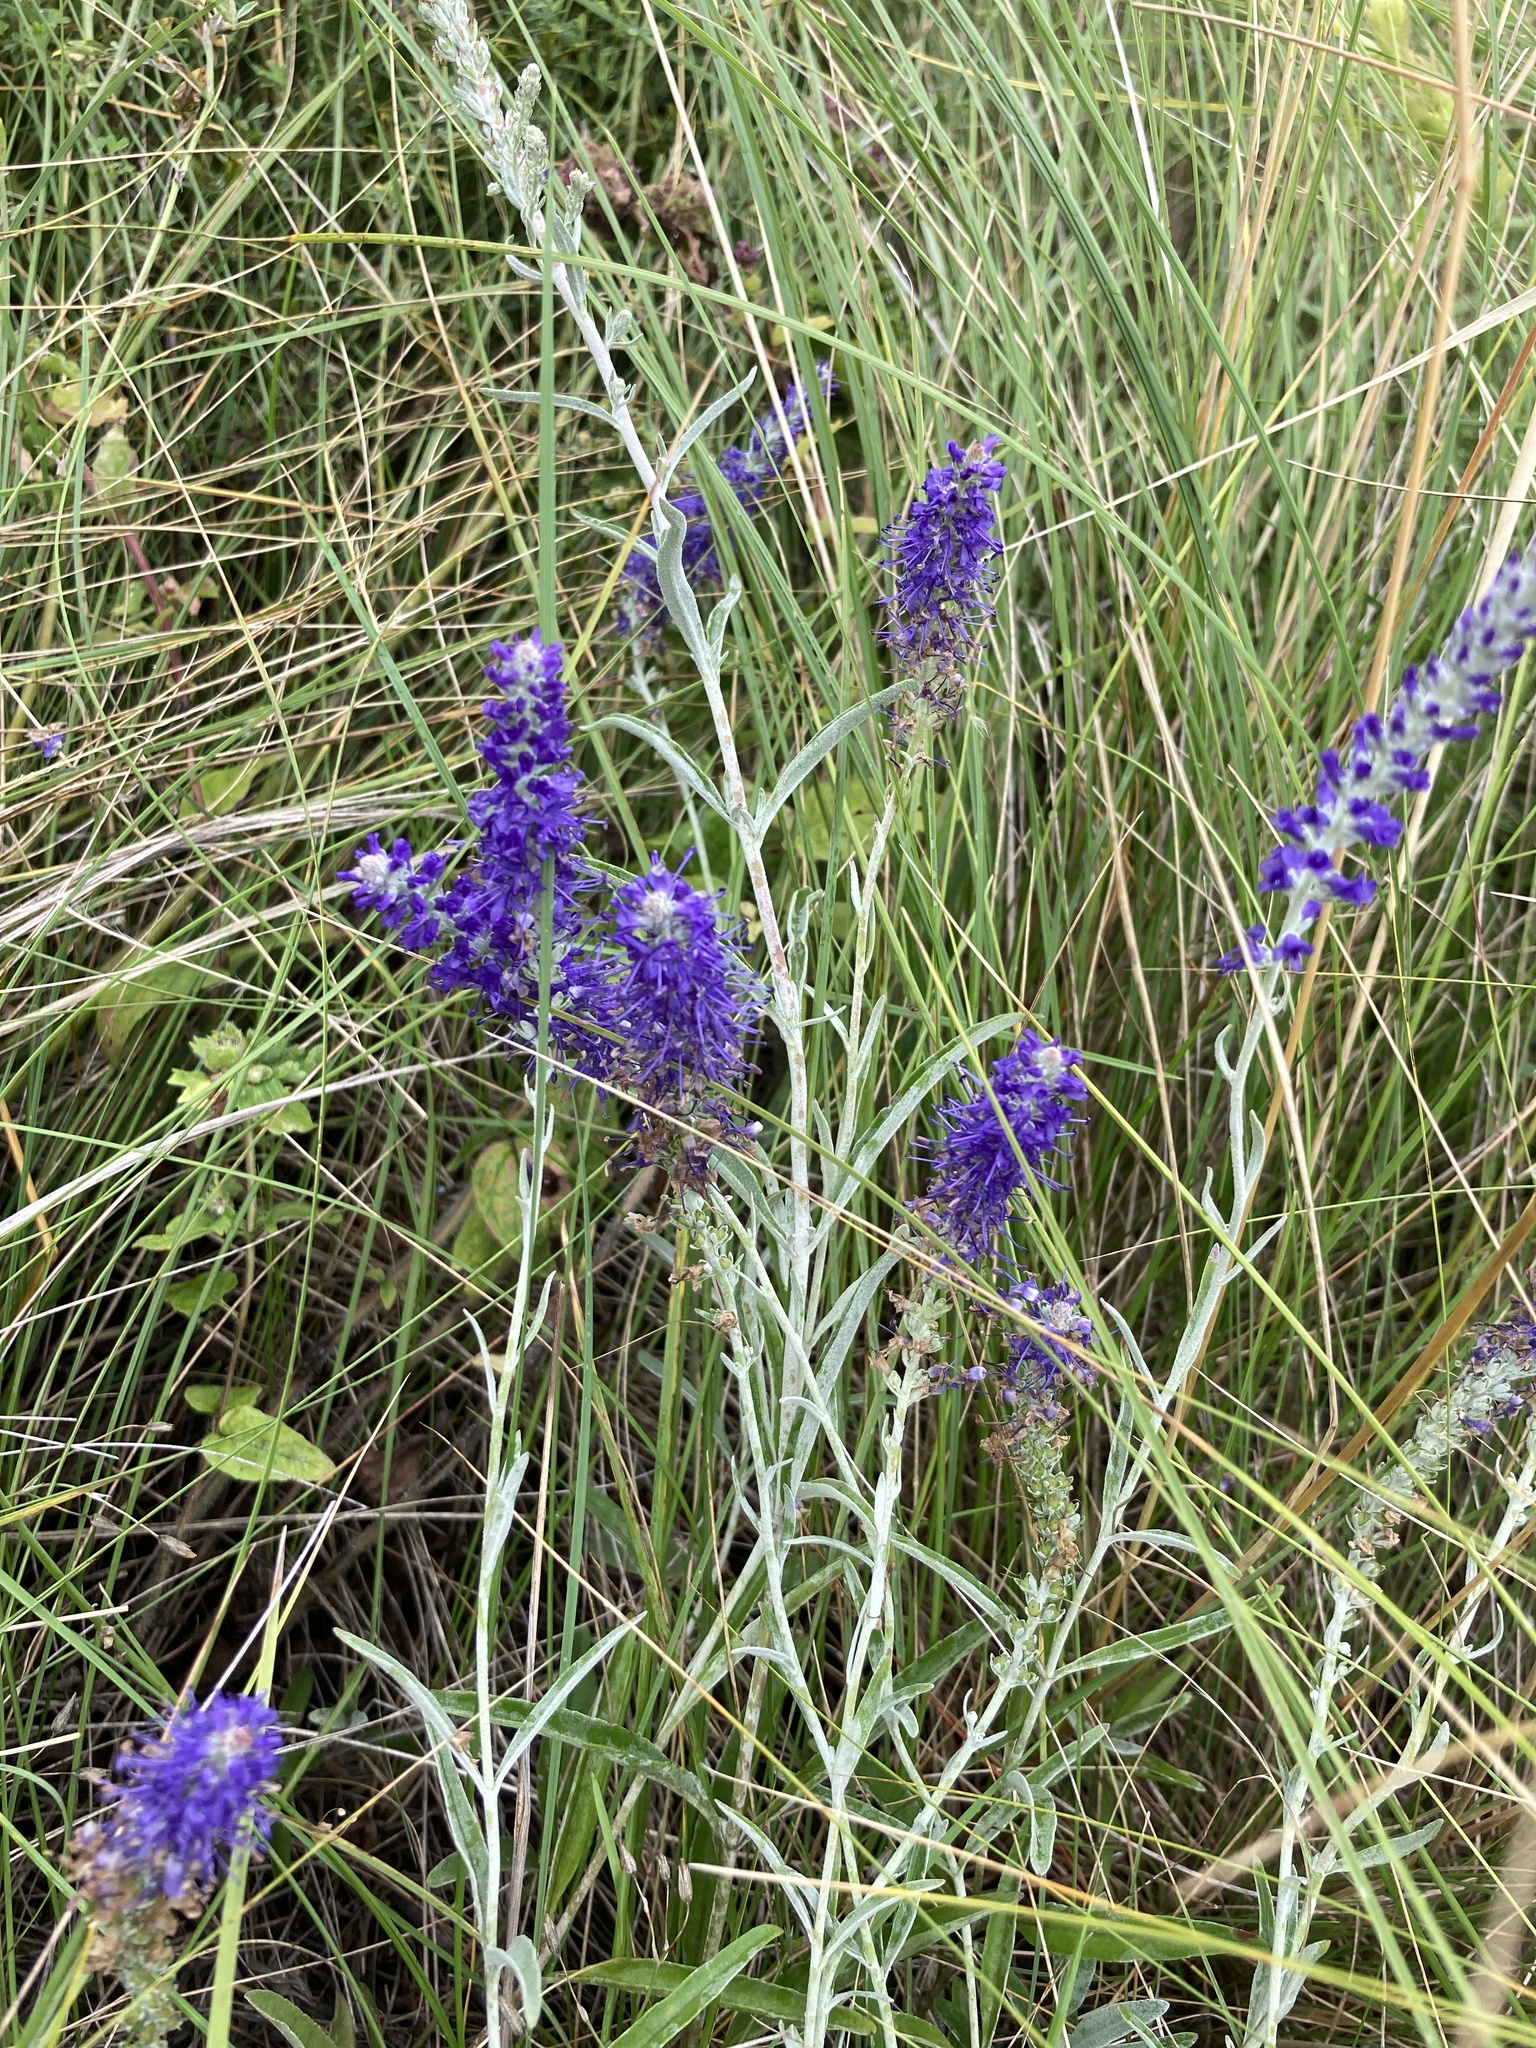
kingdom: Plantae
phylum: Tracheophyta
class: Magnoliopsida
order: Lamiales
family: Plantaginaceae
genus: Veronica
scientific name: Veronica incana
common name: Silver speedwell
